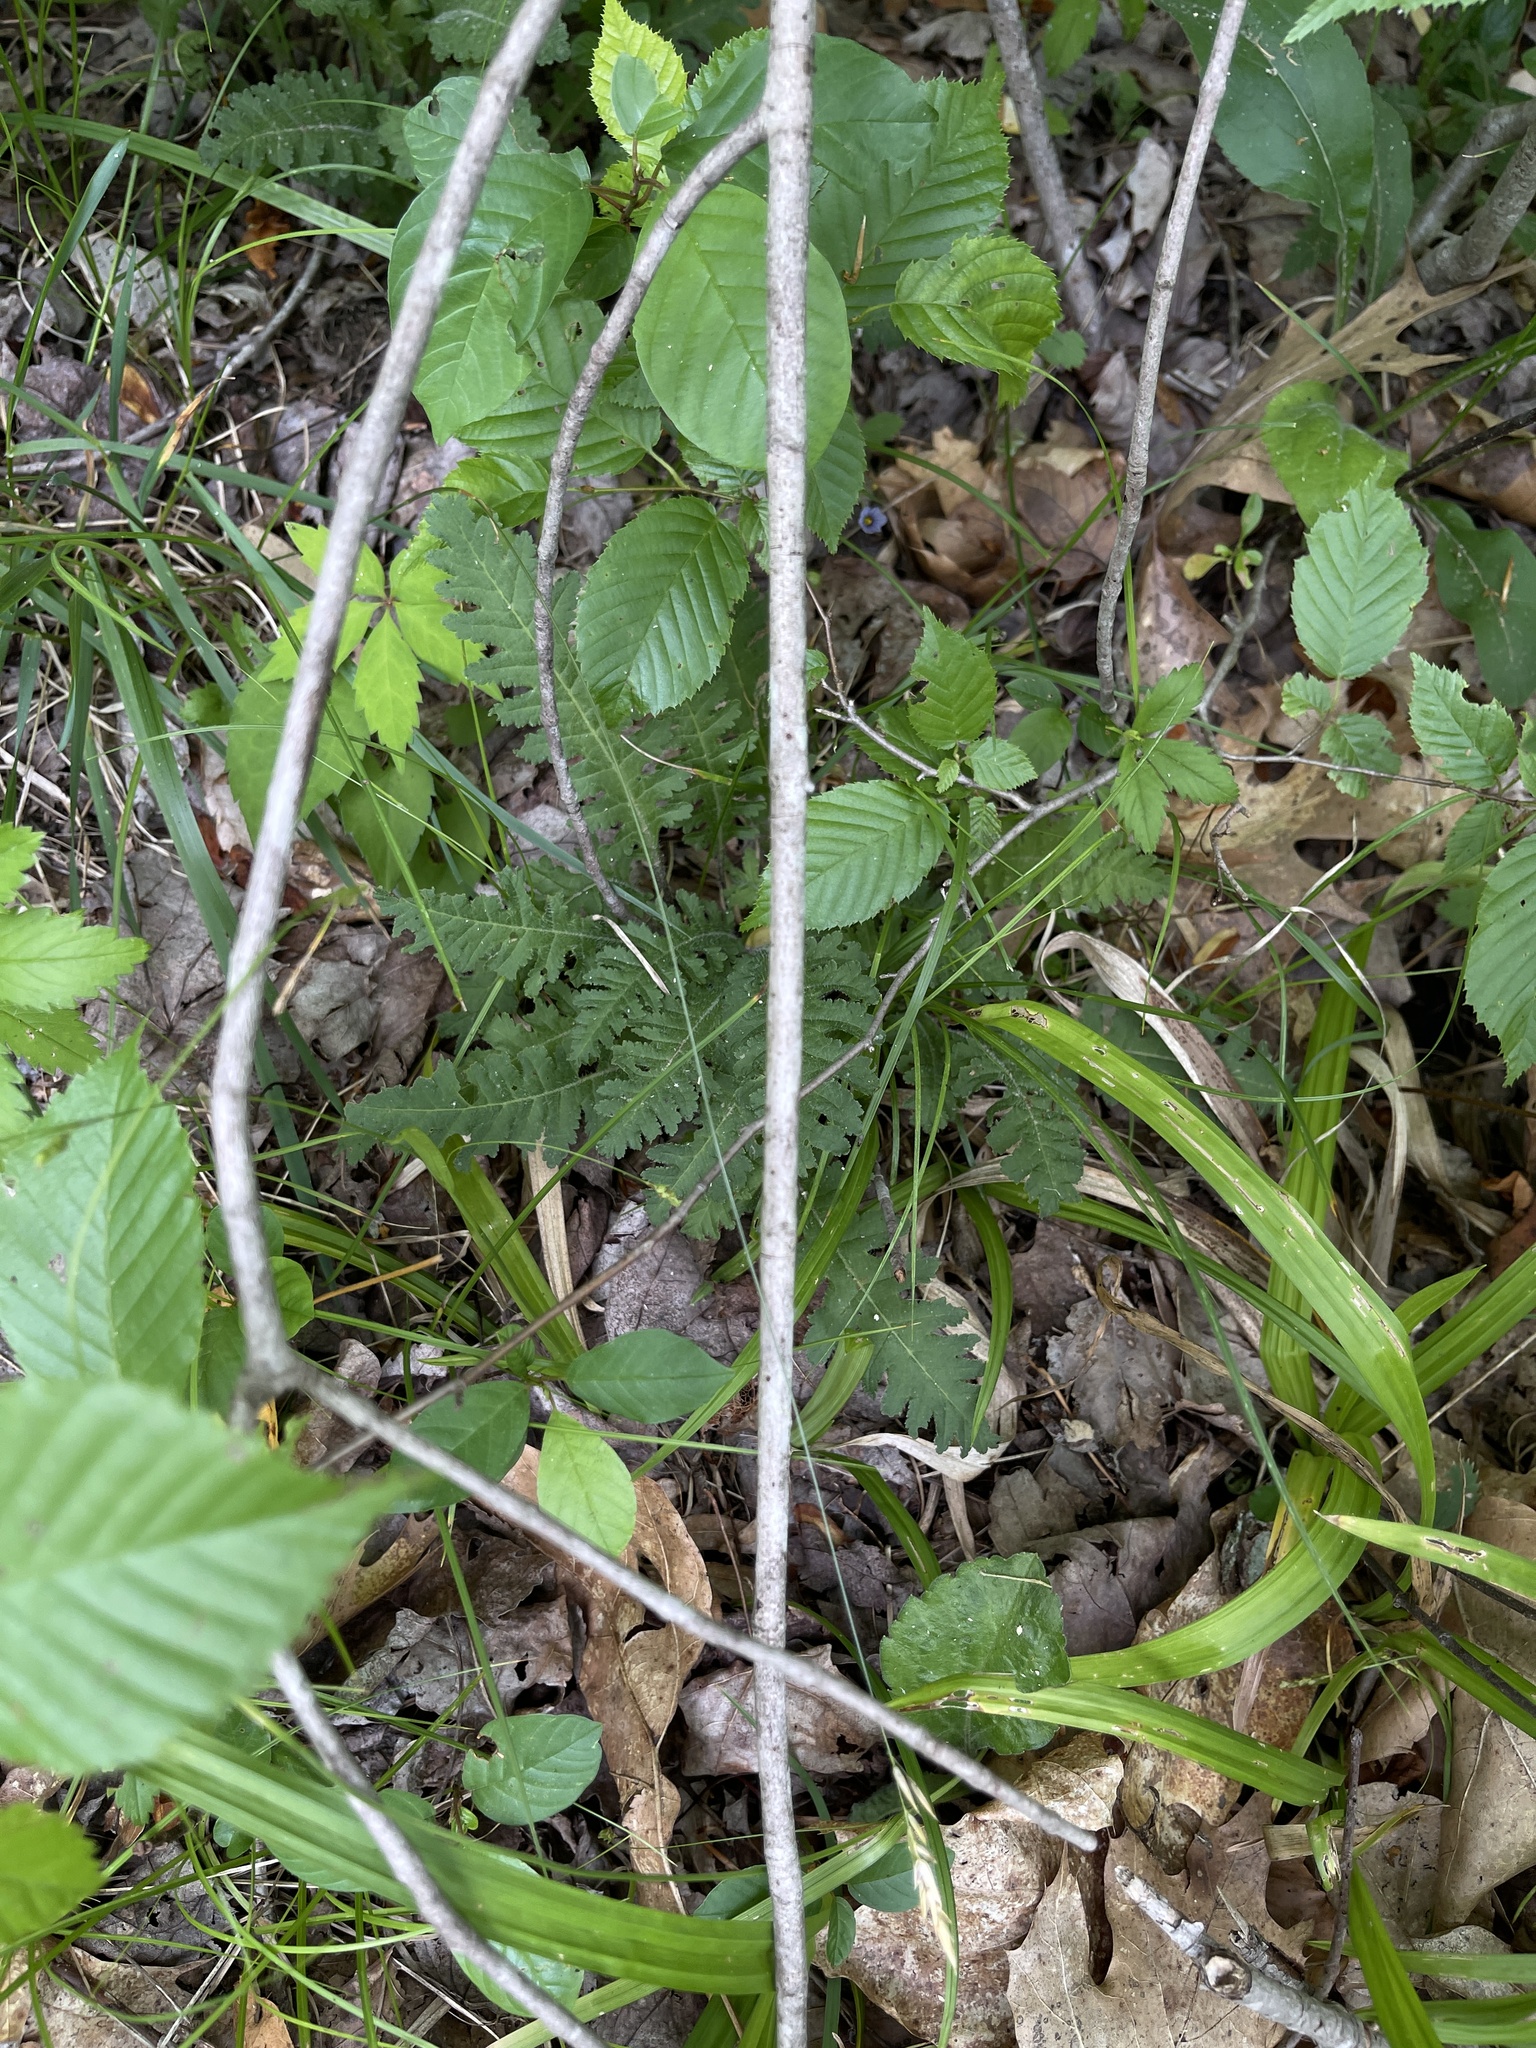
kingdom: Plantae
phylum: Tracheophyta
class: Magnoliopsida
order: Lamiales
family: Orobanchaceae
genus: Pedicularis
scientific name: Pedicularis canadensis
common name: Early lousewort
